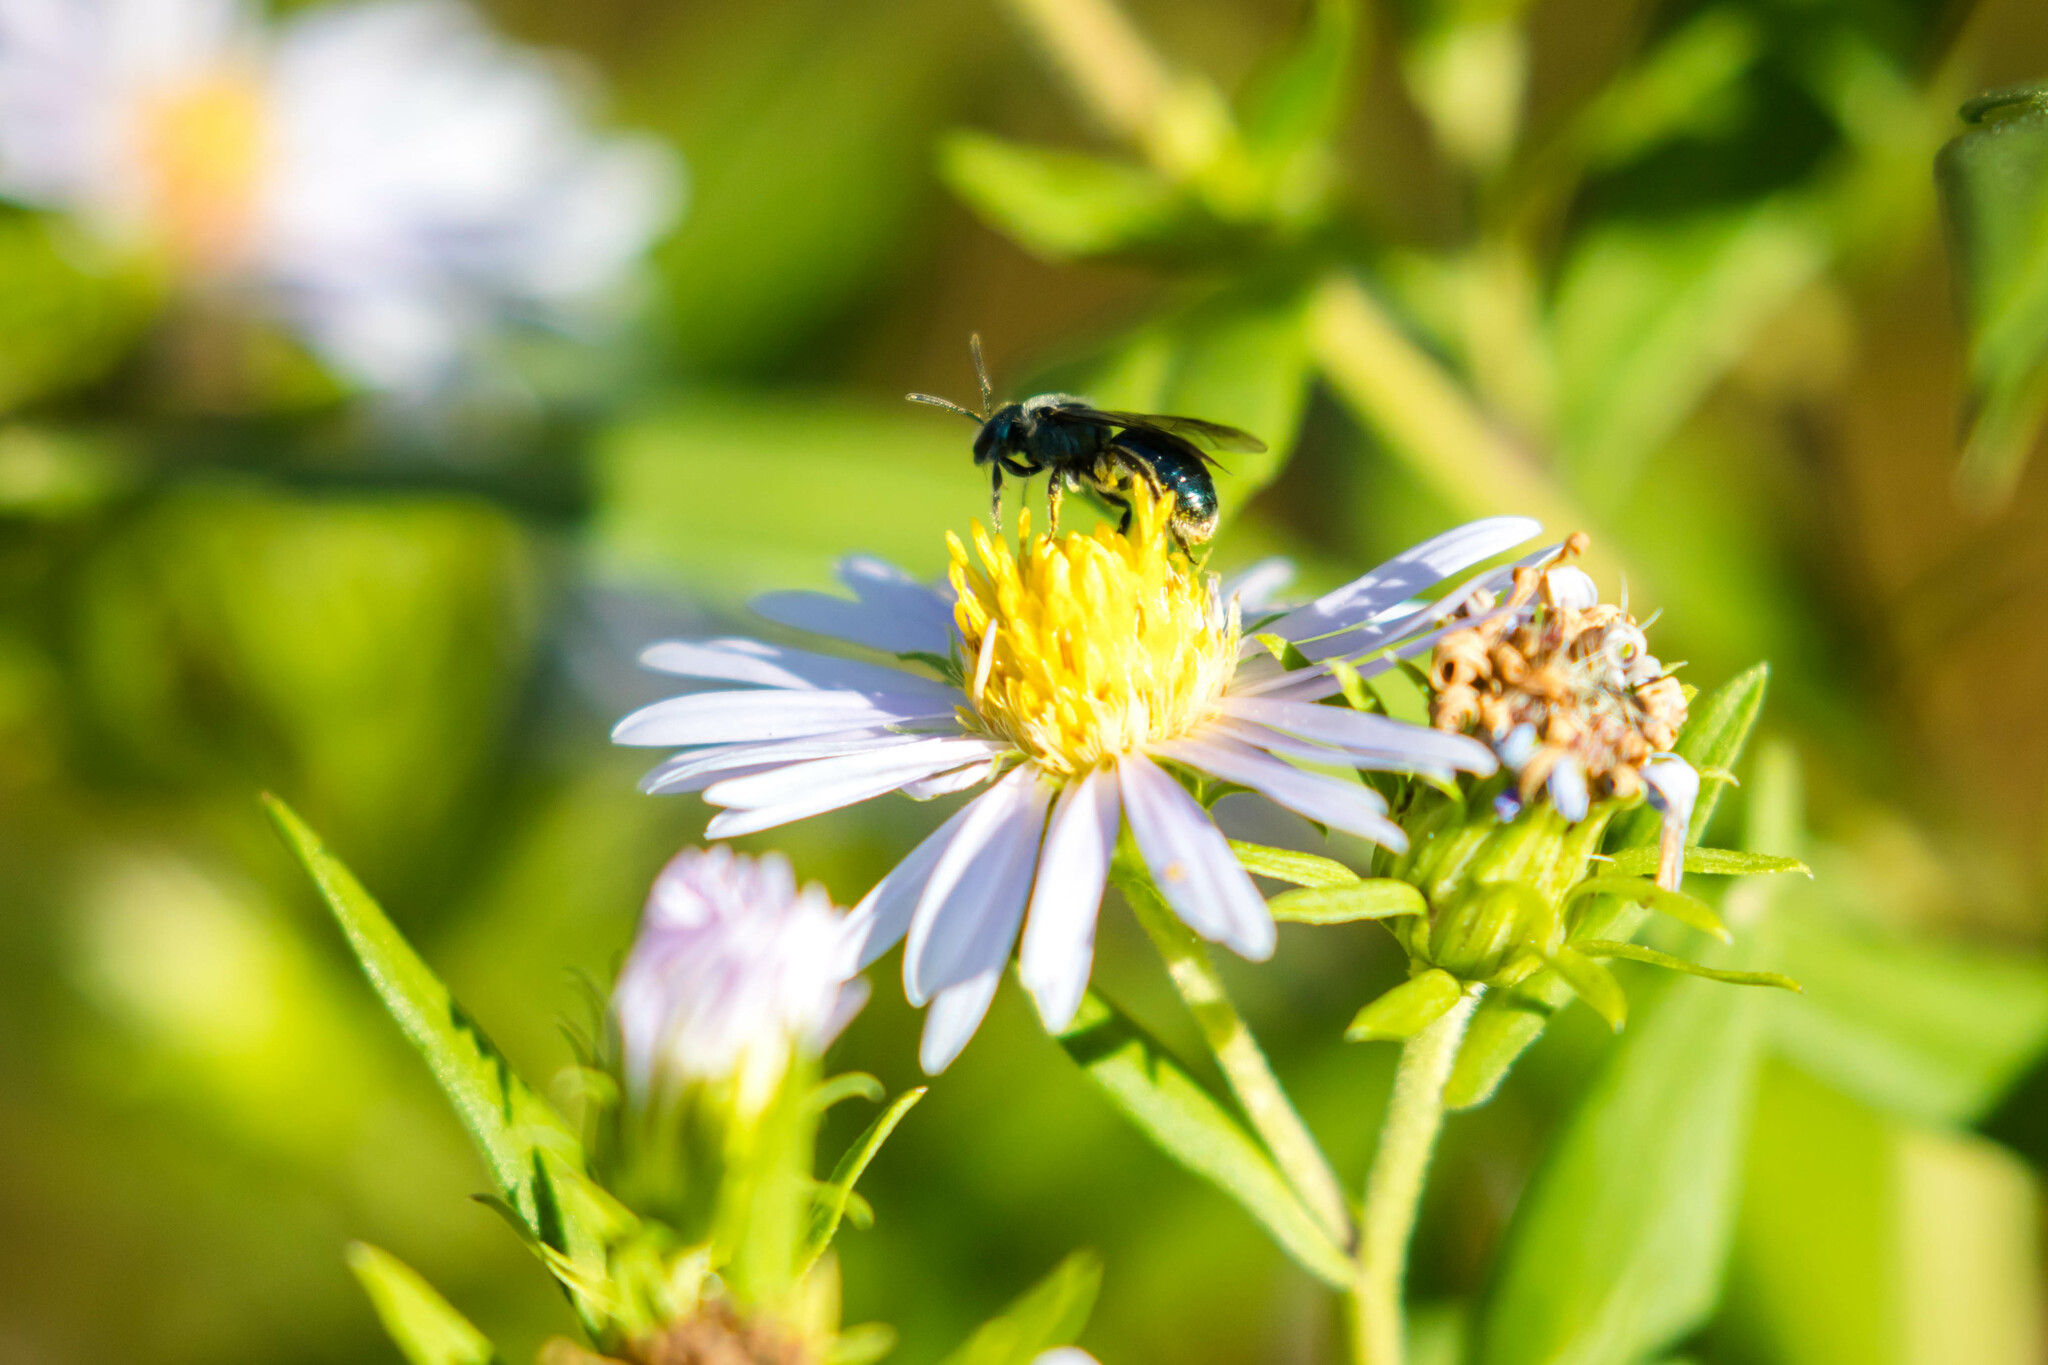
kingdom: Animalia
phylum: Arthropoda
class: Insecta
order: Hymenoptera
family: Halictidae
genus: Lasioglossum
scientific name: Lasioglossum coeruleum
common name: Deep-blue sweat bee
